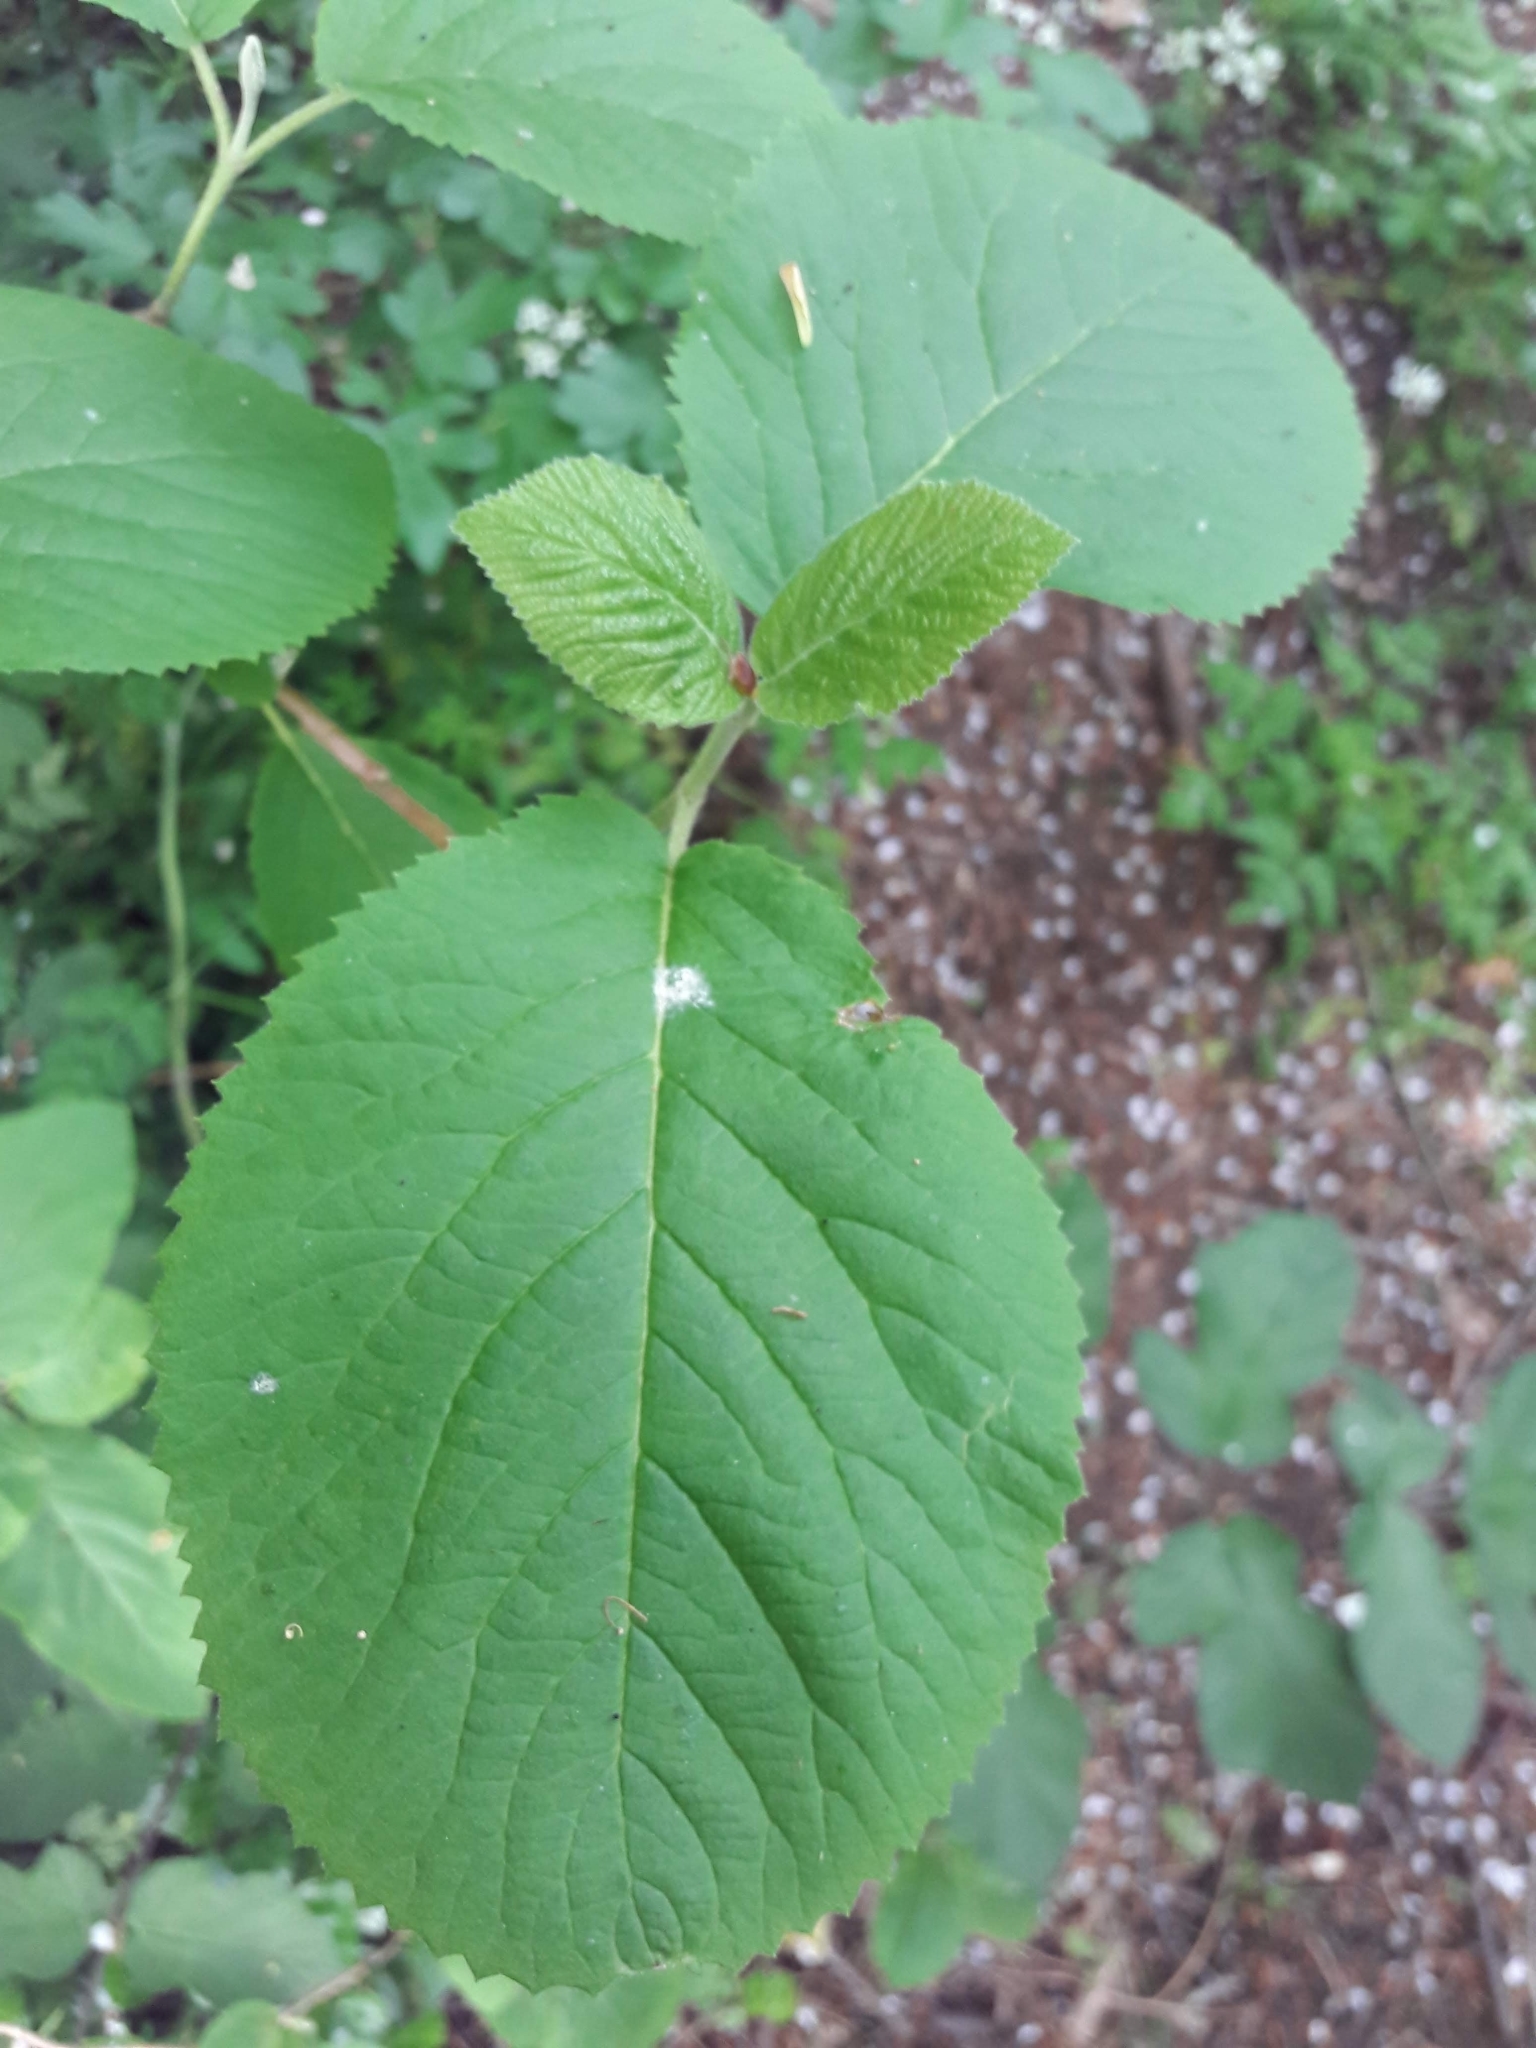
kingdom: Plantae
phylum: Tracheophyta
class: Magnoliopsida
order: Dipsacales
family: Viburnaceae
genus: Viburnum
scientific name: Viburnum lantana
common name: Wayfaring tree
